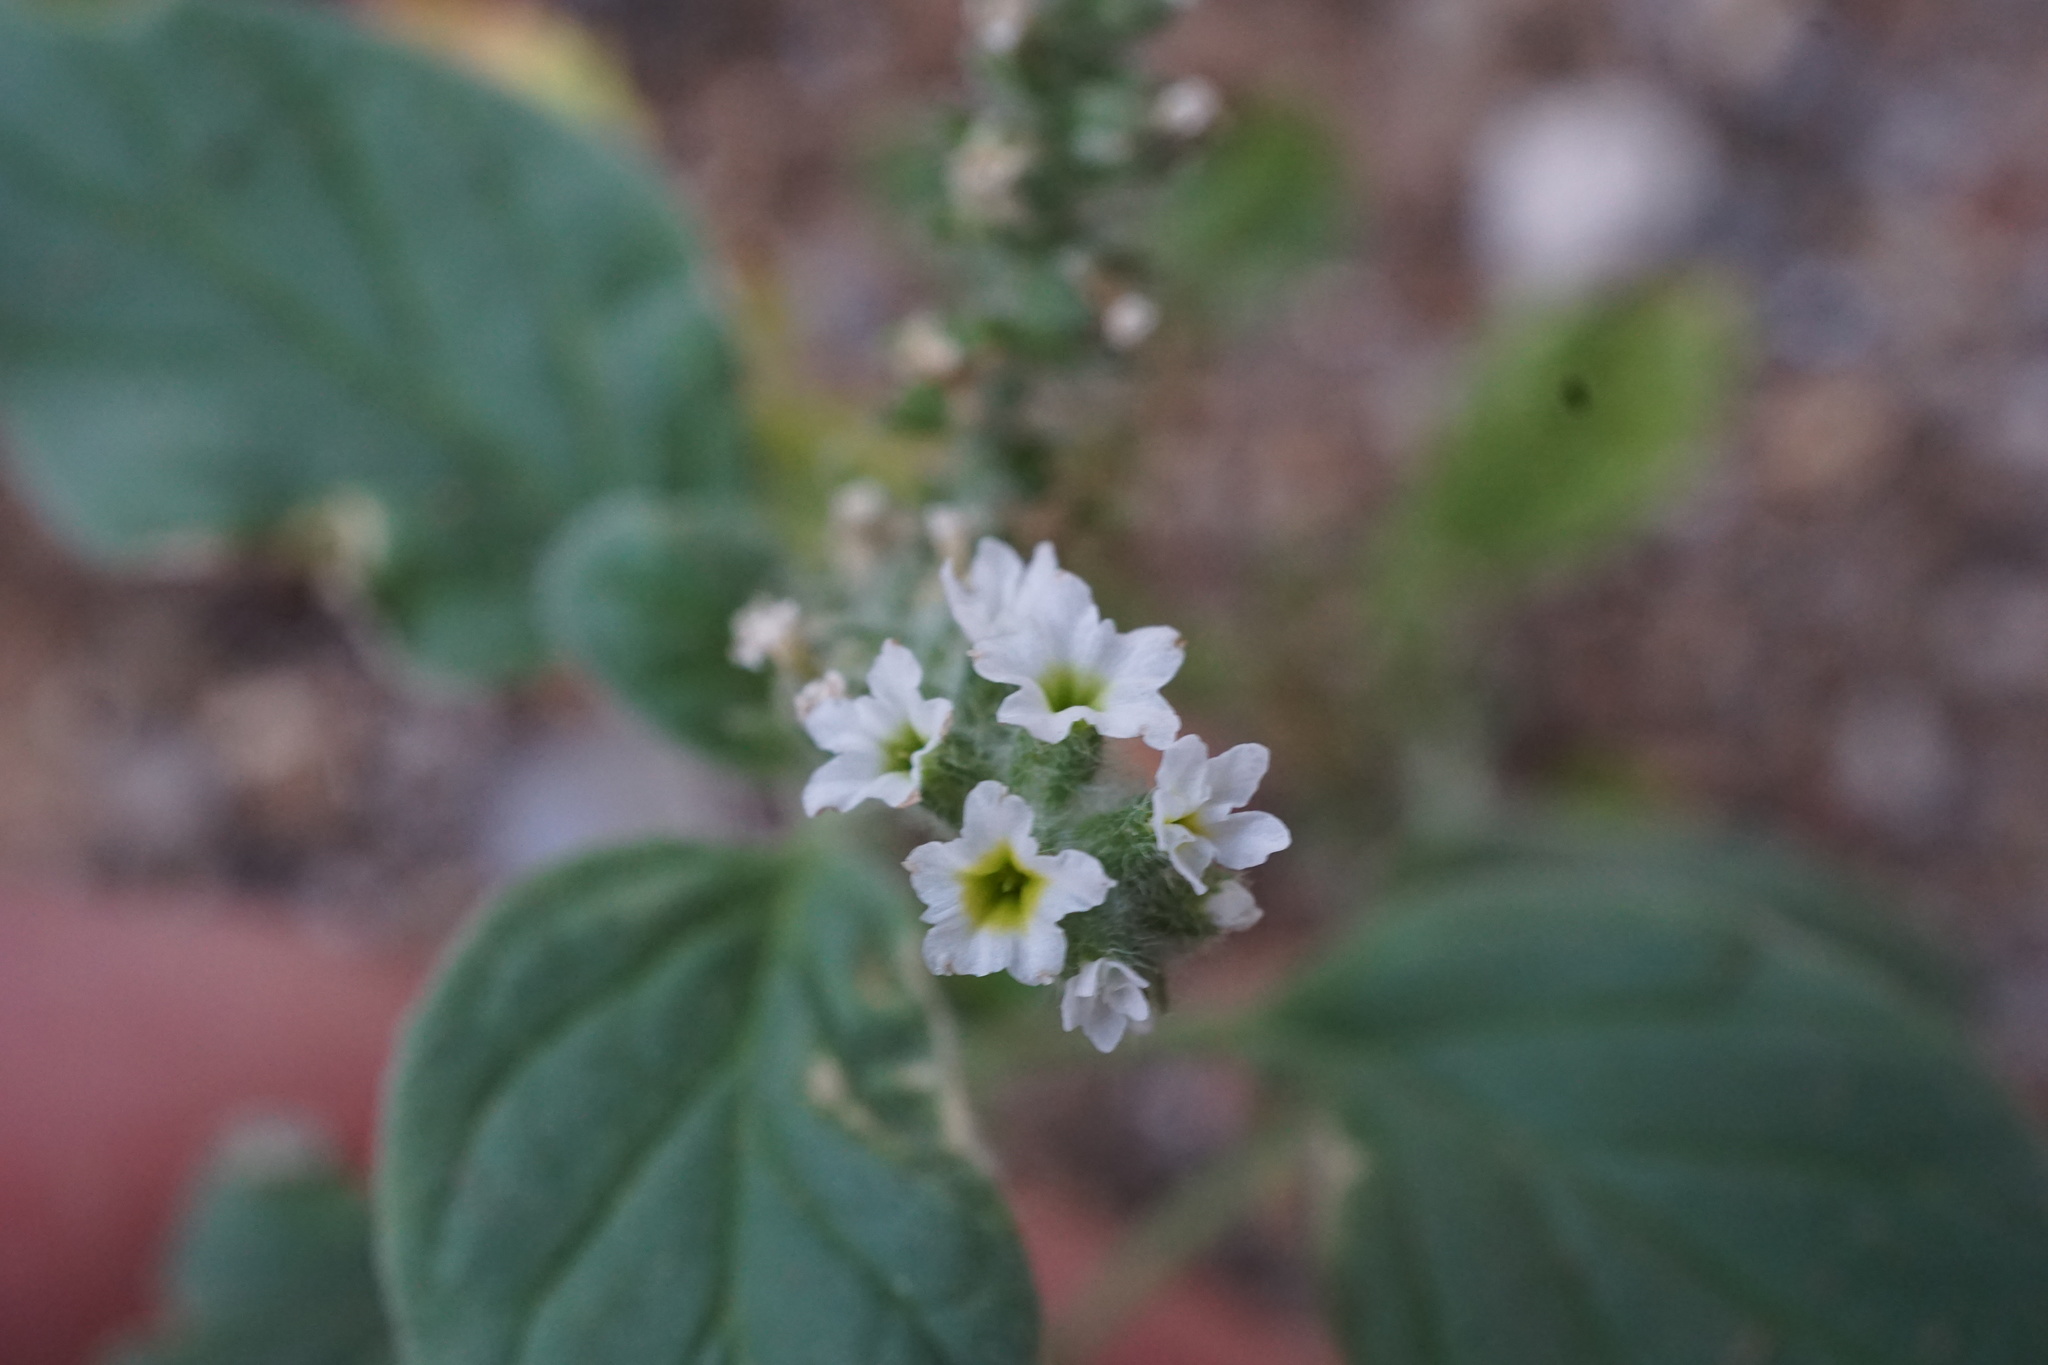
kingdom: Plantae
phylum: Tracheophyta
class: Magnoliopsida
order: Boraginales
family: Heliotropiaceae
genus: Heliotropium
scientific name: Heliotropium europaeum
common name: European heliotrope
